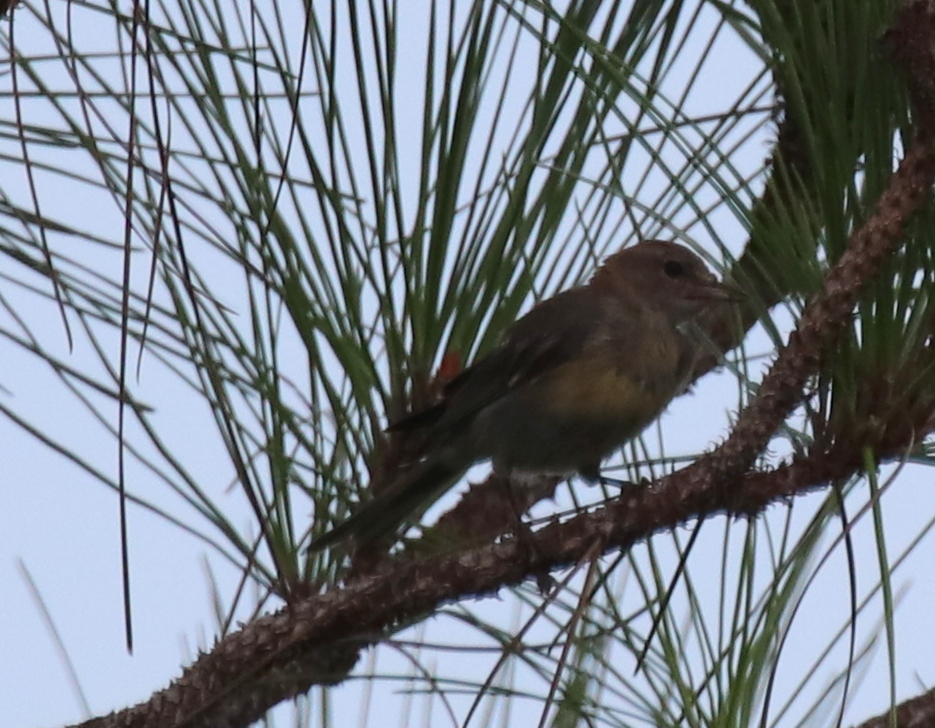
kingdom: Animalia
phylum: Chordata
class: Aves
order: Passeriformes
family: Parulidae
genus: Setophaga
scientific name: Setophaga pinus
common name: Pine warbler
